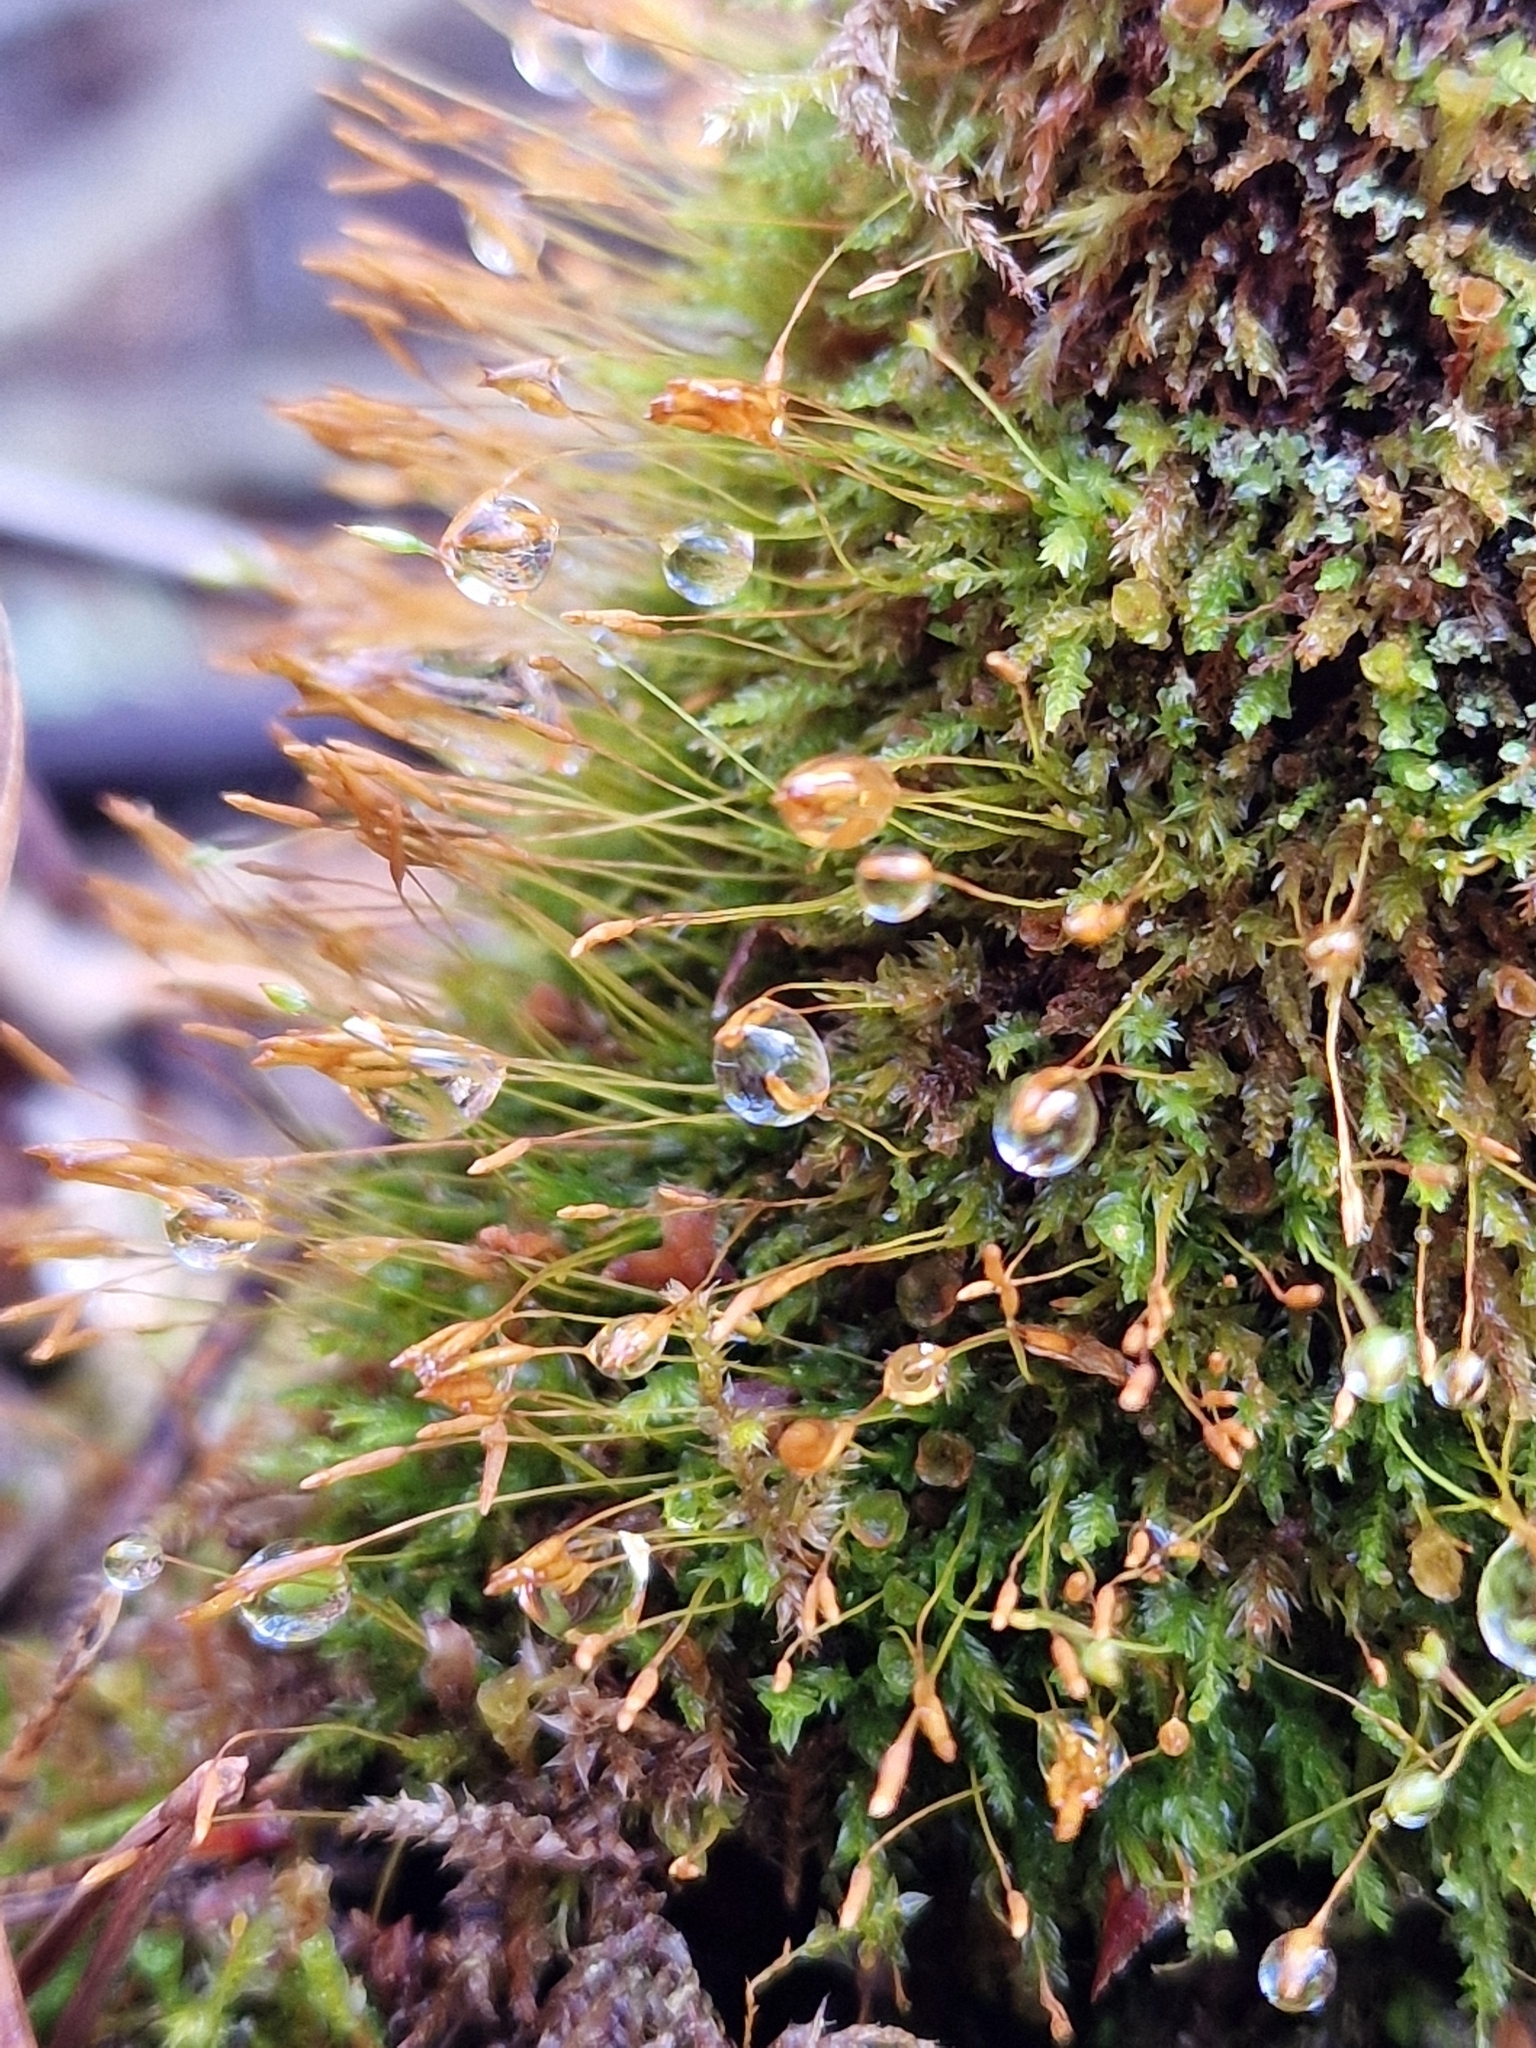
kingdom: Plantae
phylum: Bryophyta
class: Polytrichopsida
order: Tetraphidales
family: Tetraphidaceae
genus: Tetraphis
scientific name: Tetraphis pellucida
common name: Common four-toothed moss
